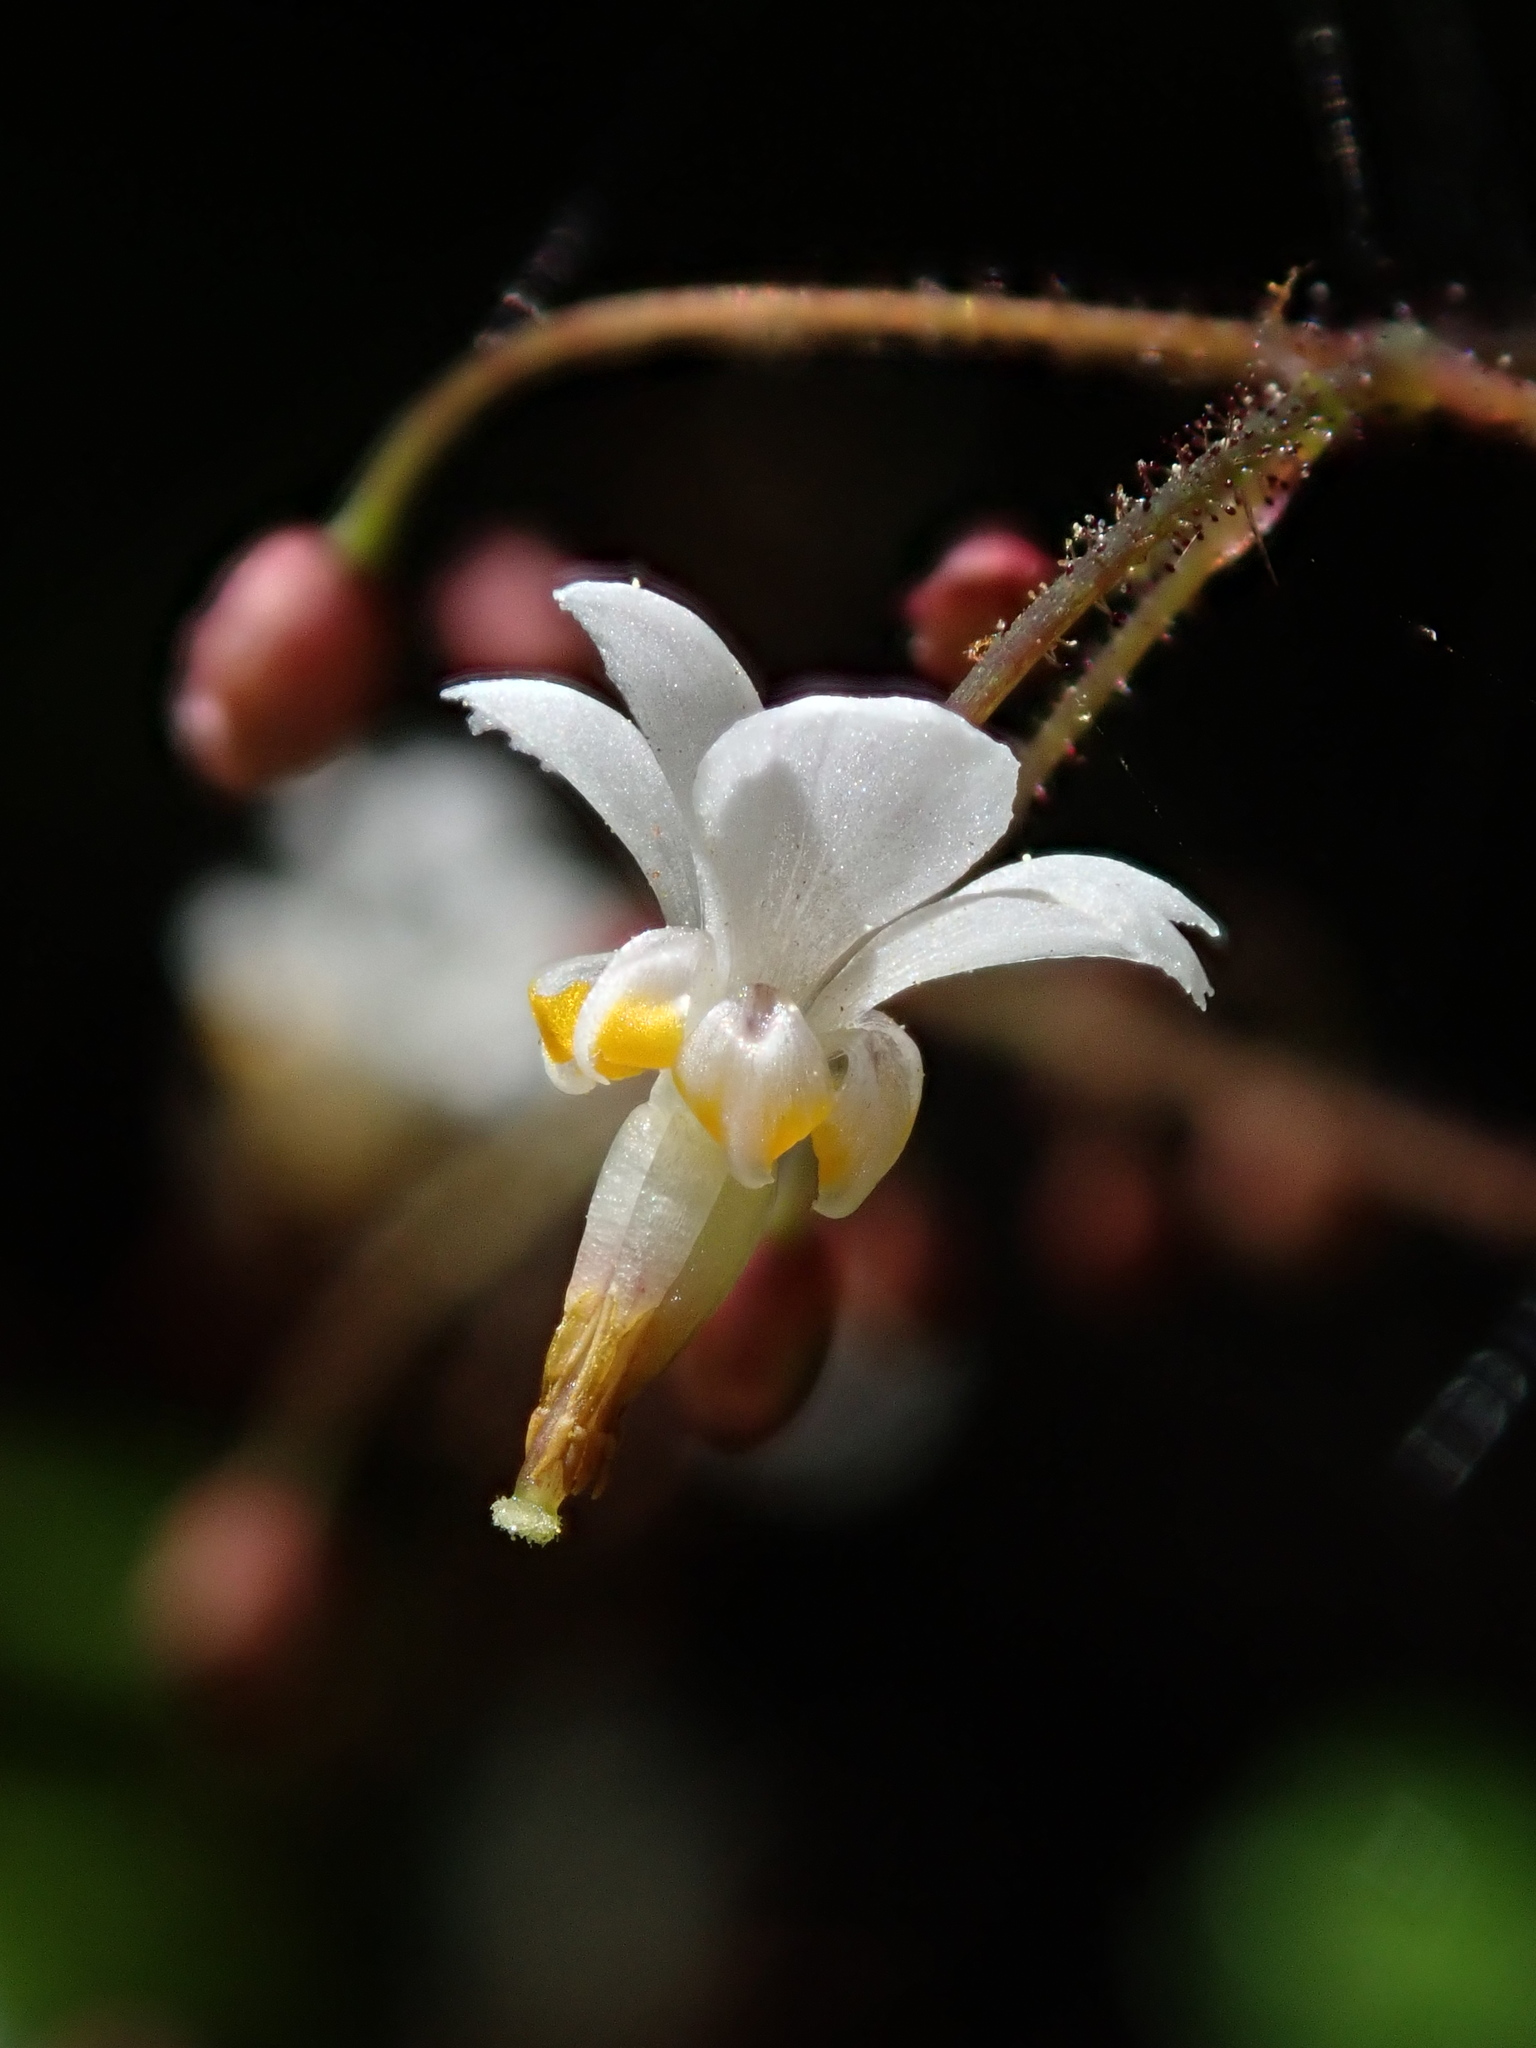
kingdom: Plantae
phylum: Tracheophyta
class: Magnoliopsida
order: Ranunculales
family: Berberidaceae
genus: Vancouveria
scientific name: Vancouveria planipetala
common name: Redwood-ivy
